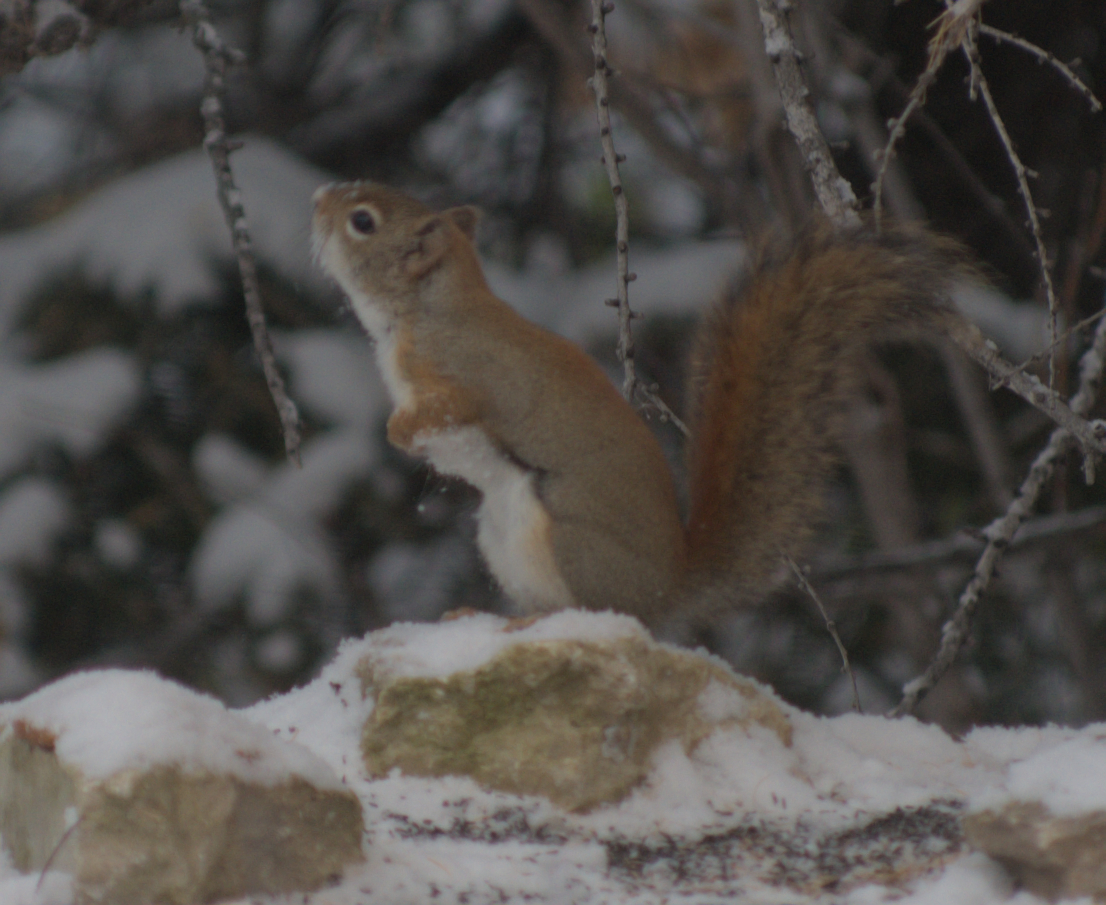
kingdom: Animalia
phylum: Chordata
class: Mammalia
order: Rodentia
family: Sciuridae
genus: Tamiasciurus
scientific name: Tamiasciurus hudsonicus
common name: Red squirrel
